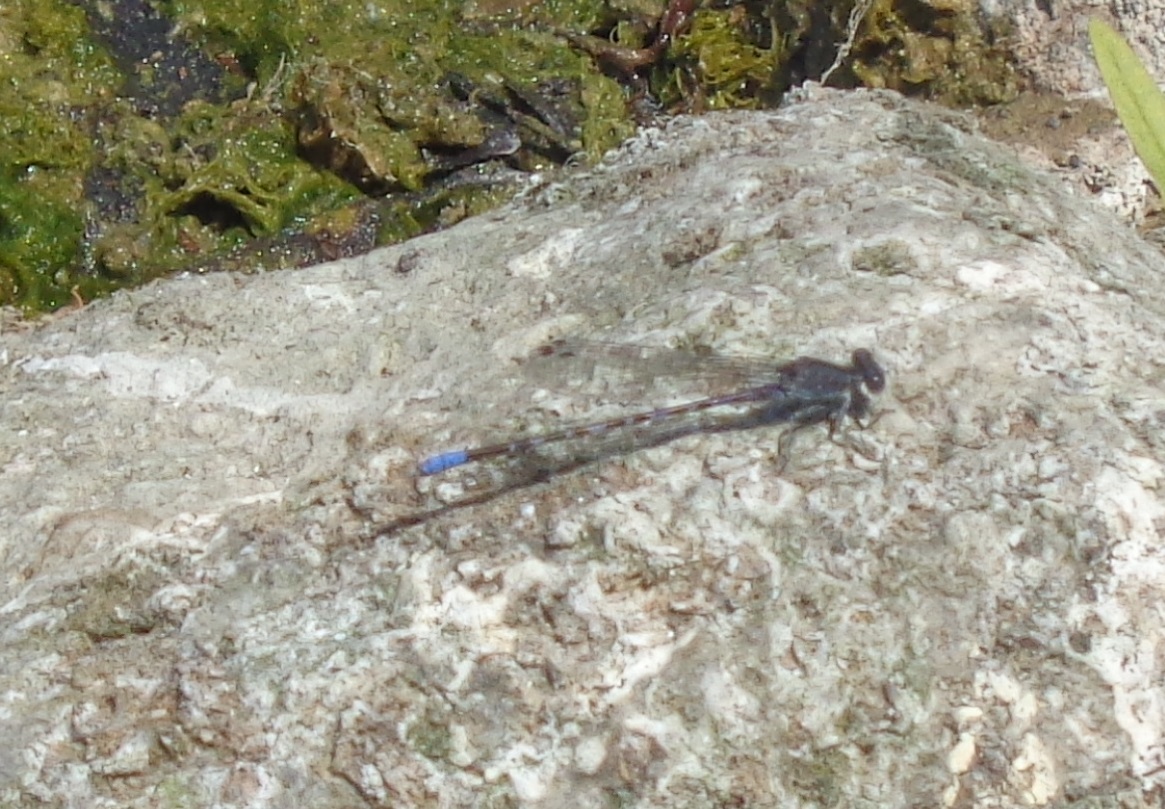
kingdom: Animalia
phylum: Arthropoda
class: Insecta
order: Odonata
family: Coenagrionidae
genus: Argia
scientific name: Argia immunda
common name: Kiowa dancer
